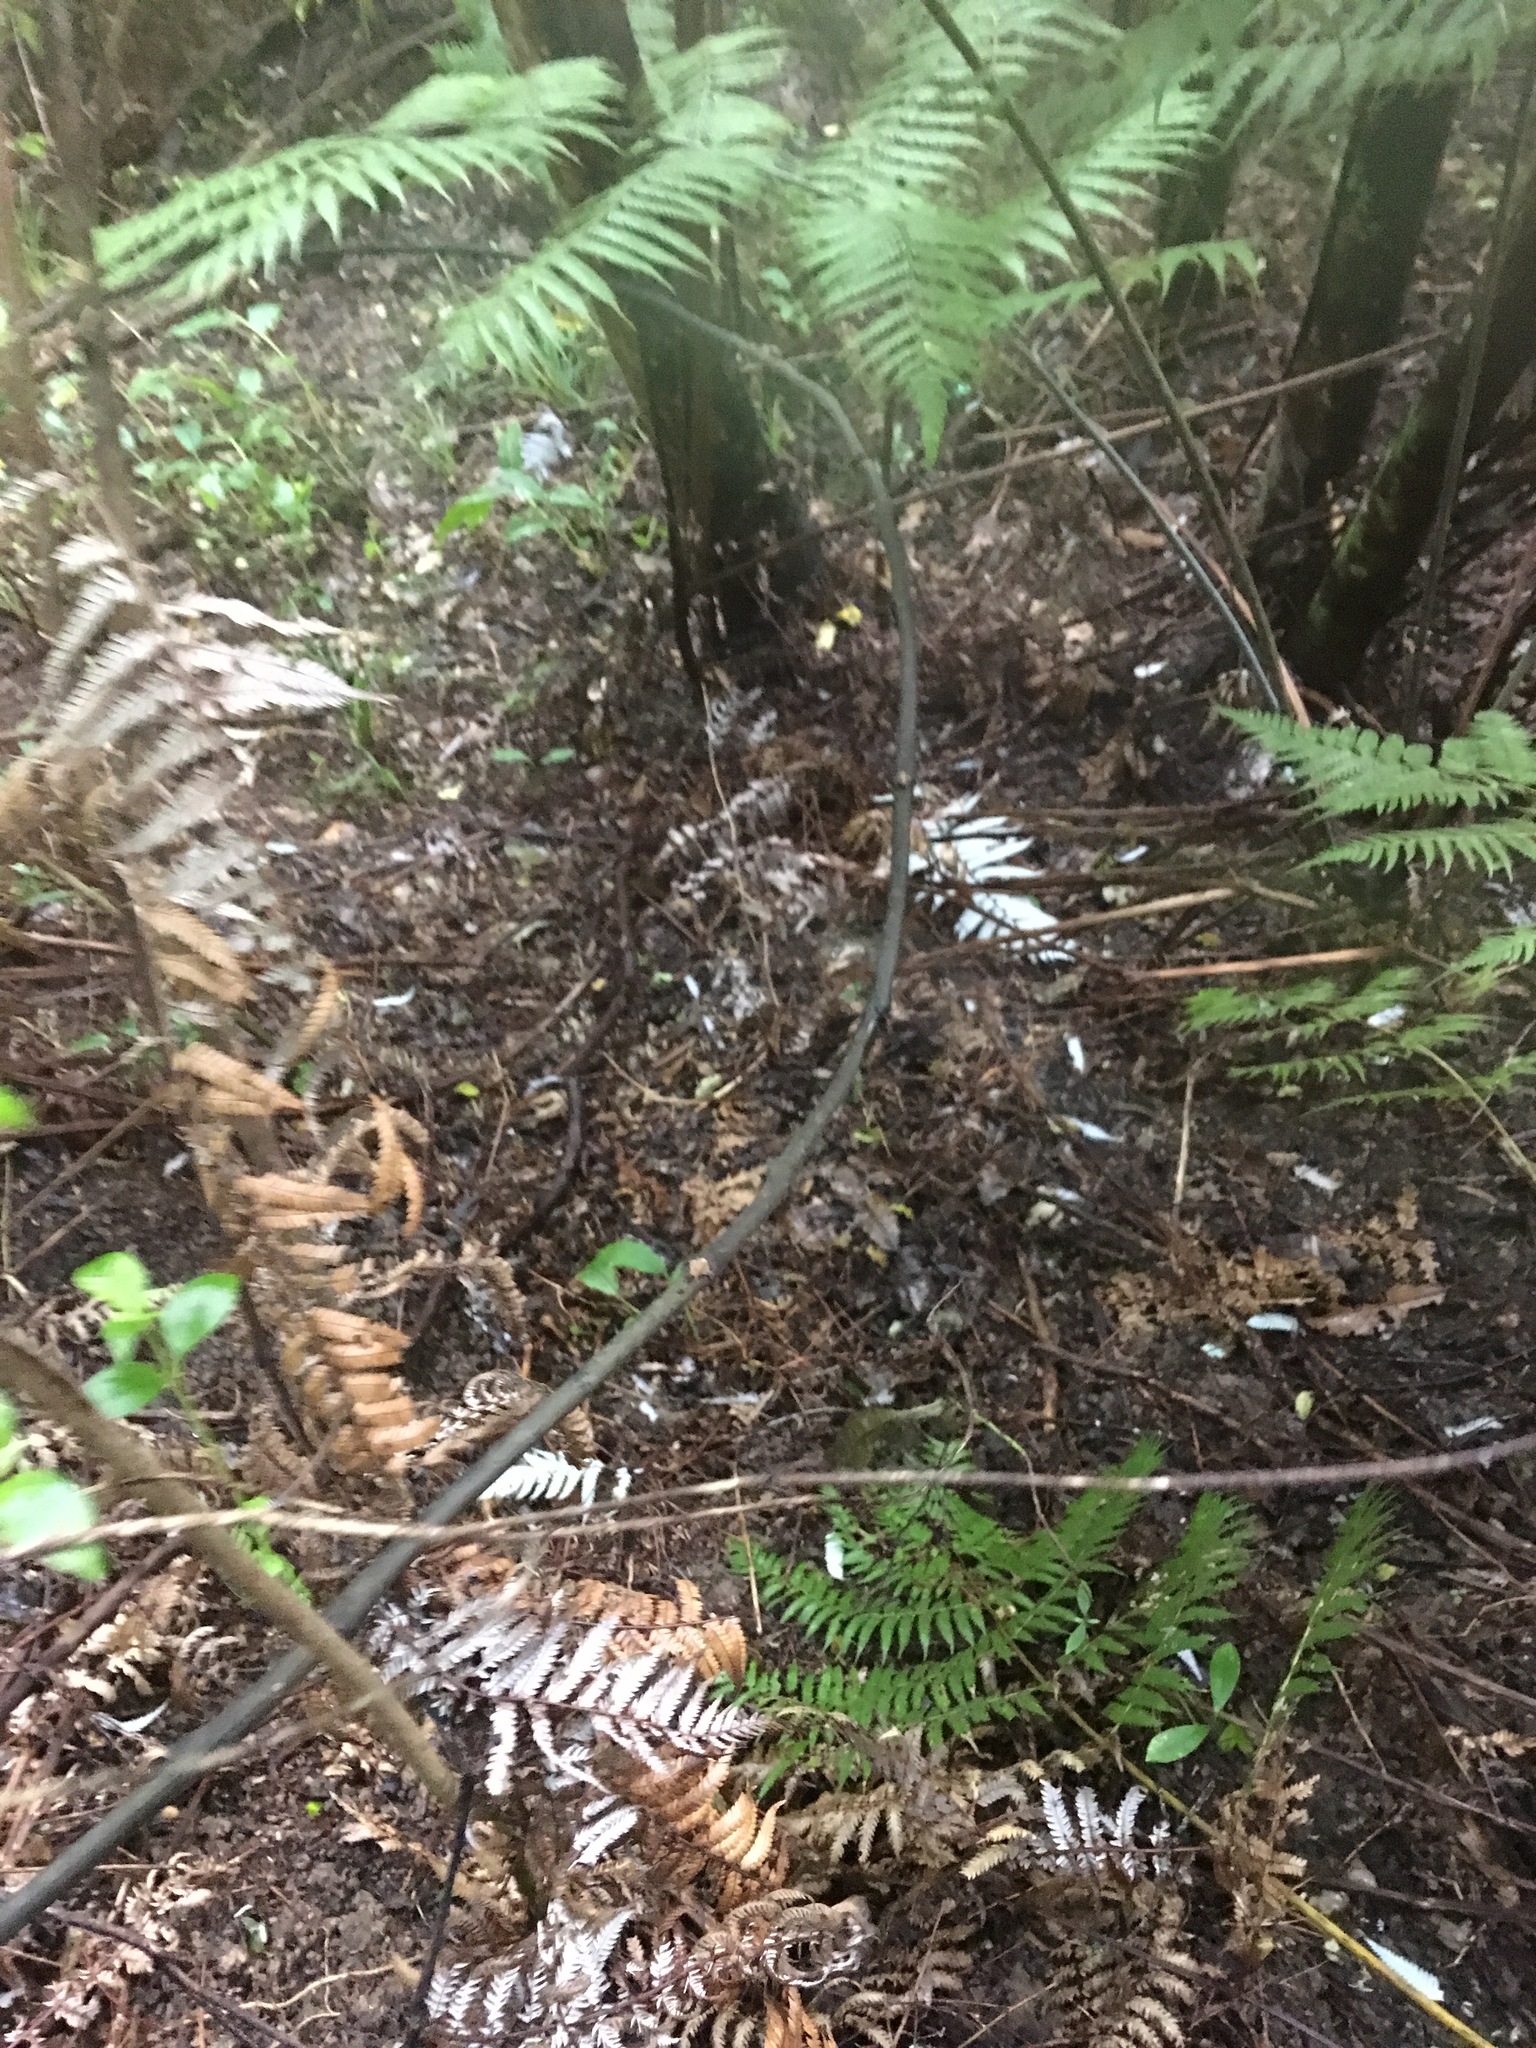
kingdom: Plantae
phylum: Tracheophyta
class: Liliopsida
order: Liliales
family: Ripogonaceae
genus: Ripogonum
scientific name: Ripogonum scandens
